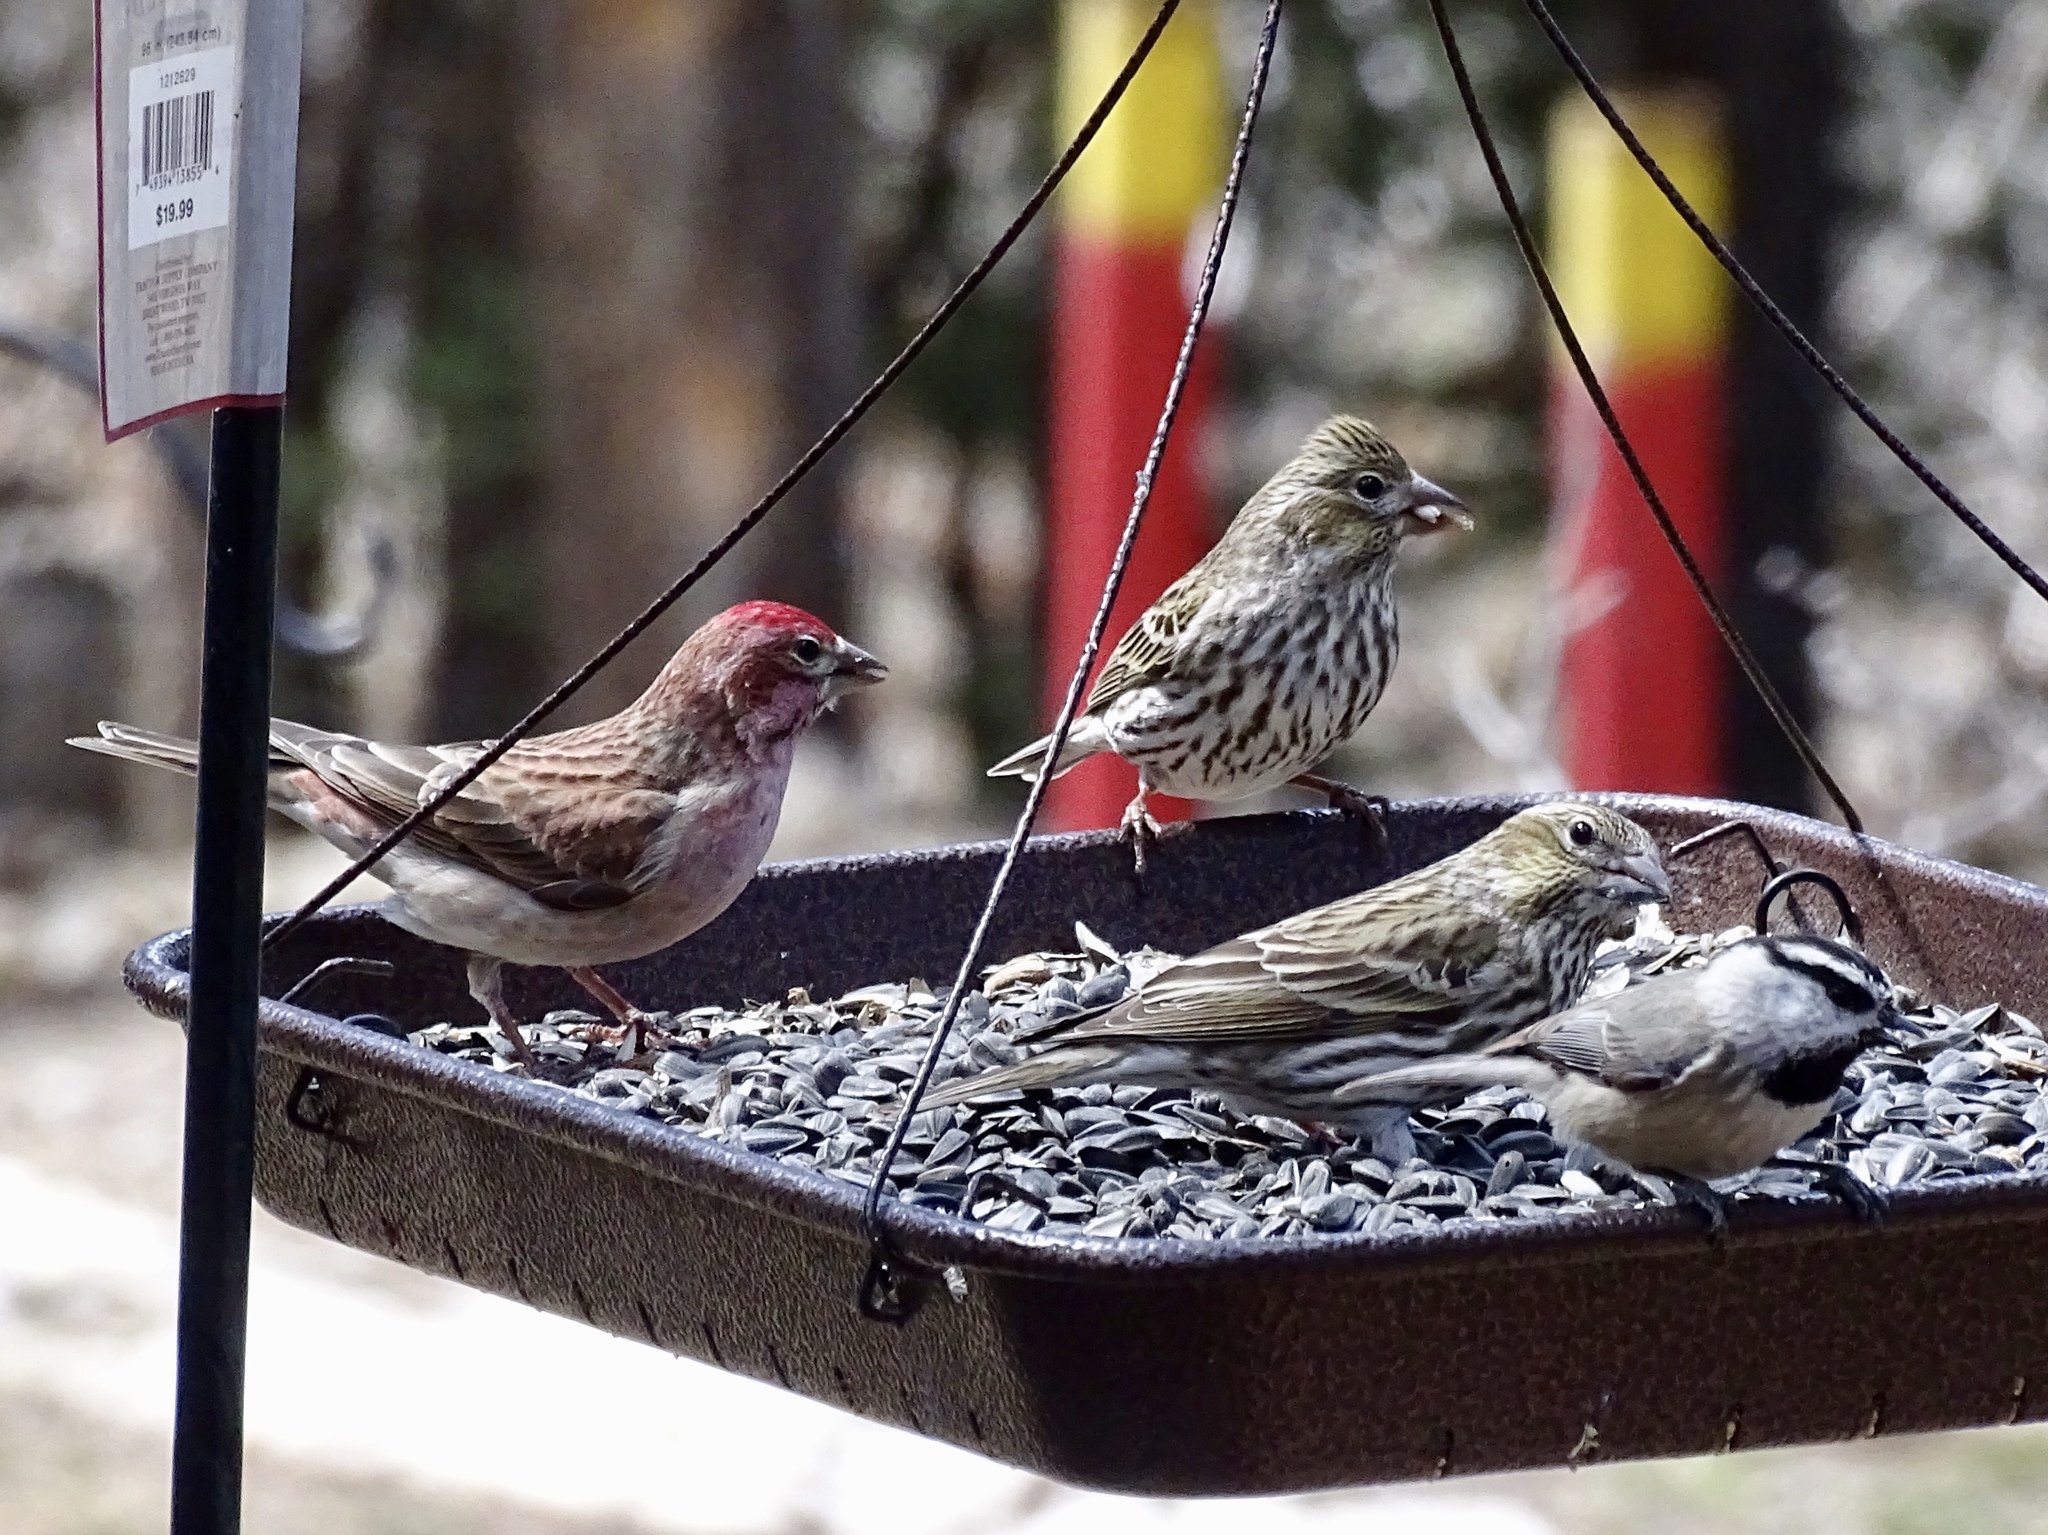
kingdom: Animalia
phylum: Chordata
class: Aves
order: Passeriformes
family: Paridae
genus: Poecile
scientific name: Poecile gambeli
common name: Mountain chickadee
